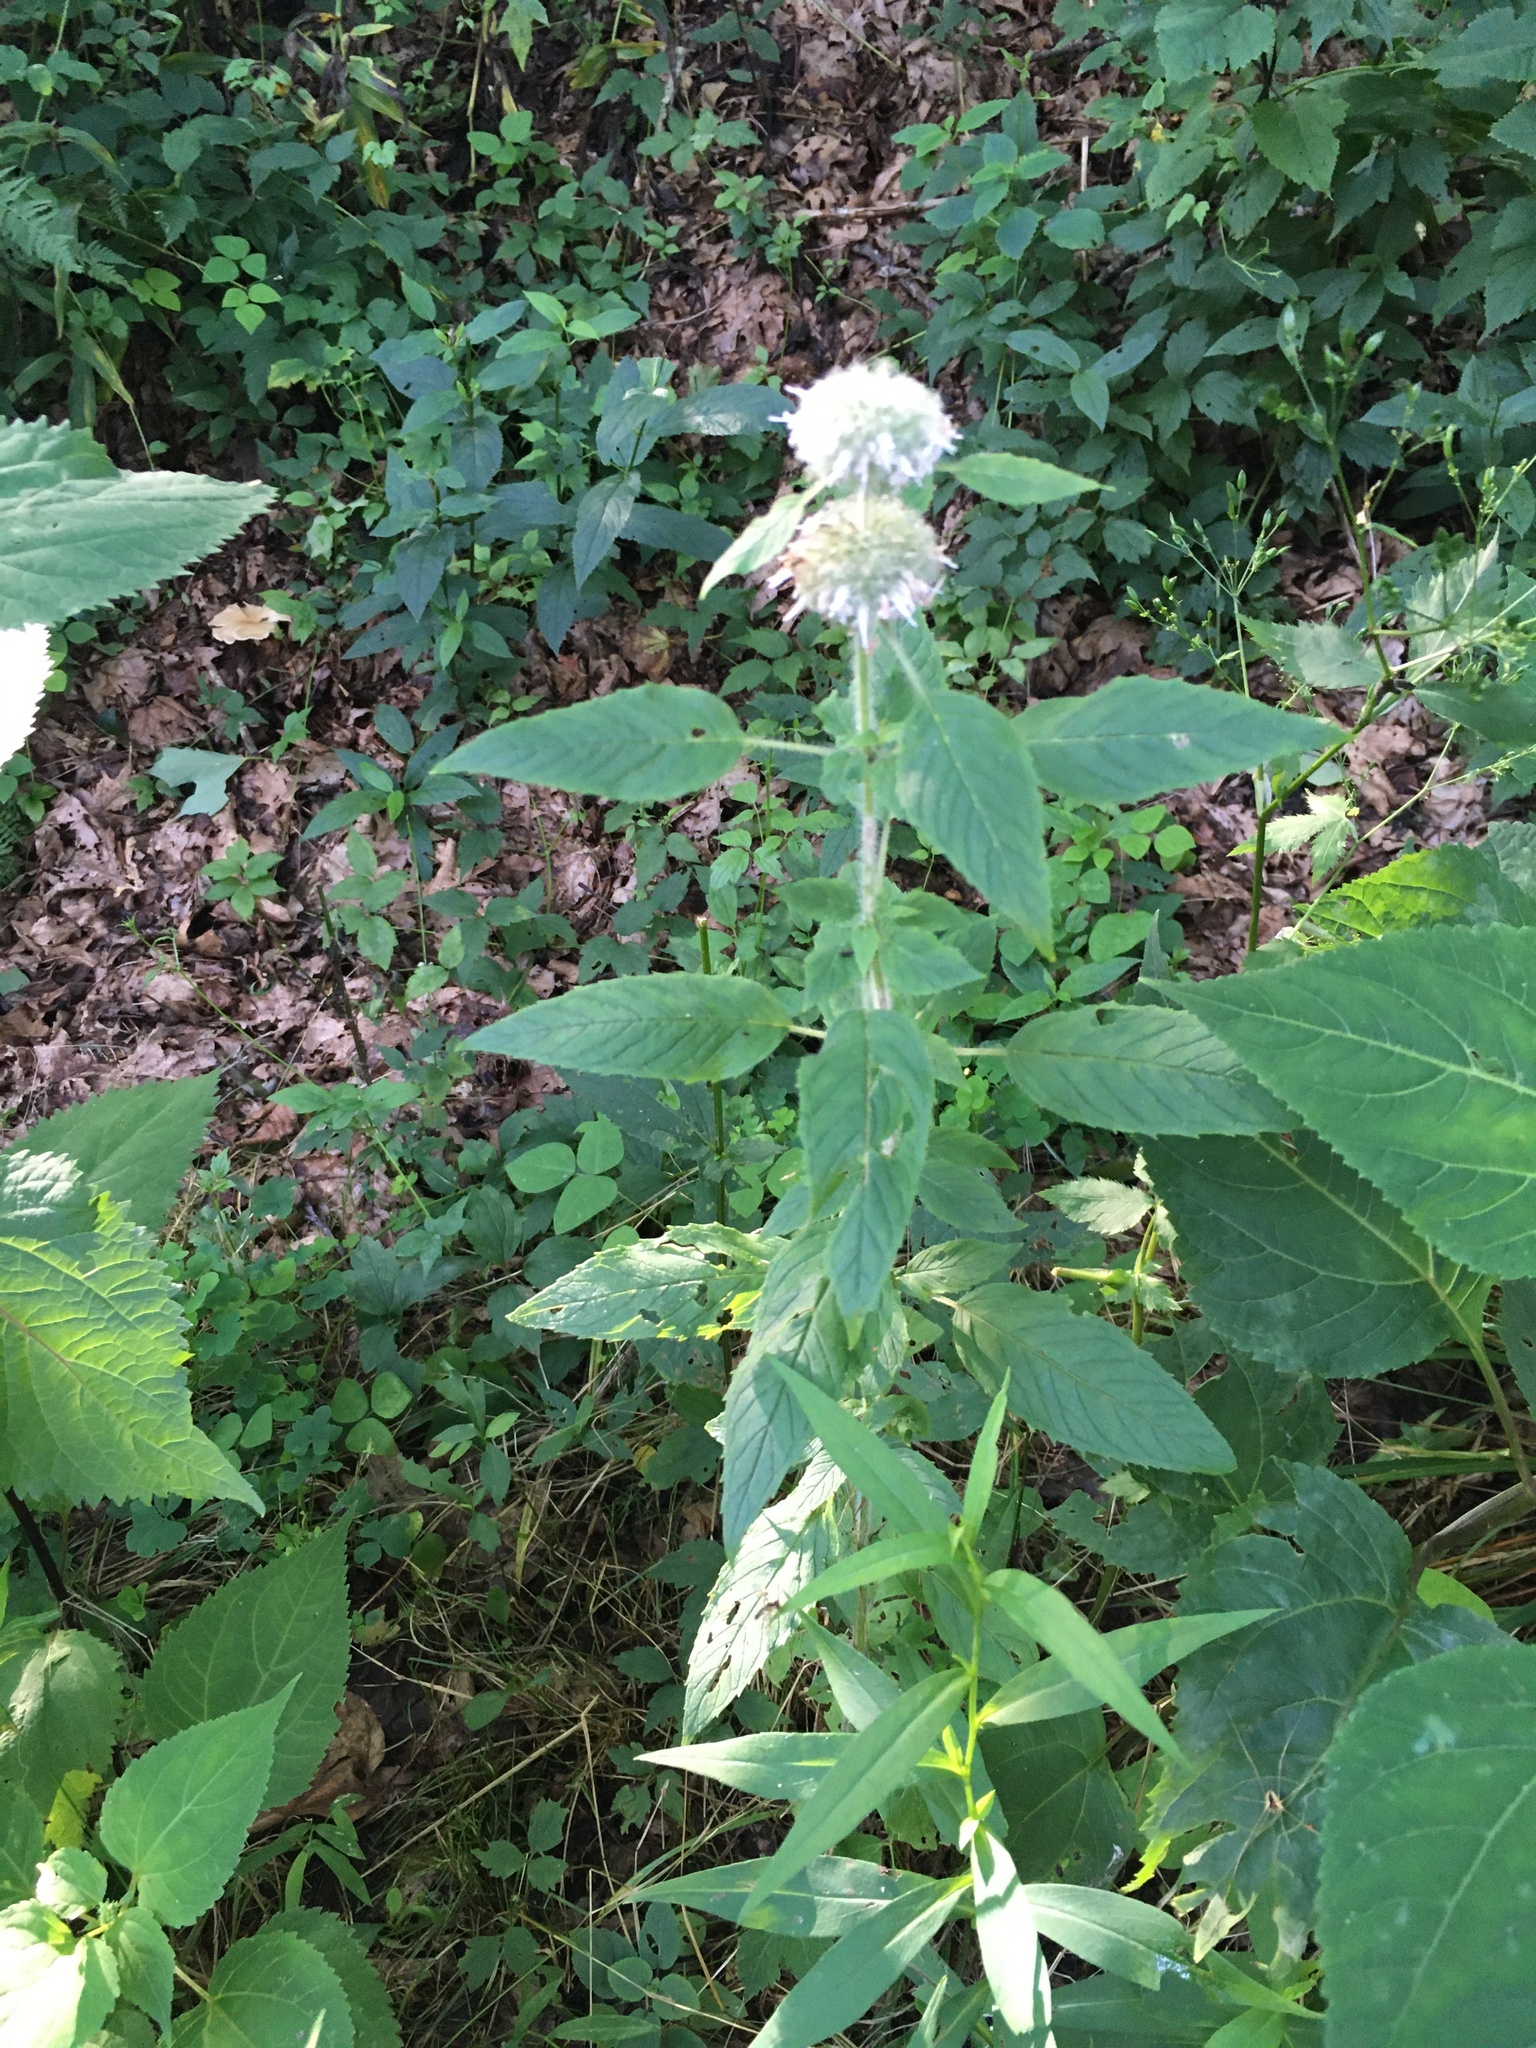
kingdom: Plantae
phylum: Tracheophyta
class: Magnoliopsida
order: Lamiales
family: Lamiaceae
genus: Blephilia
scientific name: Blephilia hirsuta
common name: Hairy blephilia
